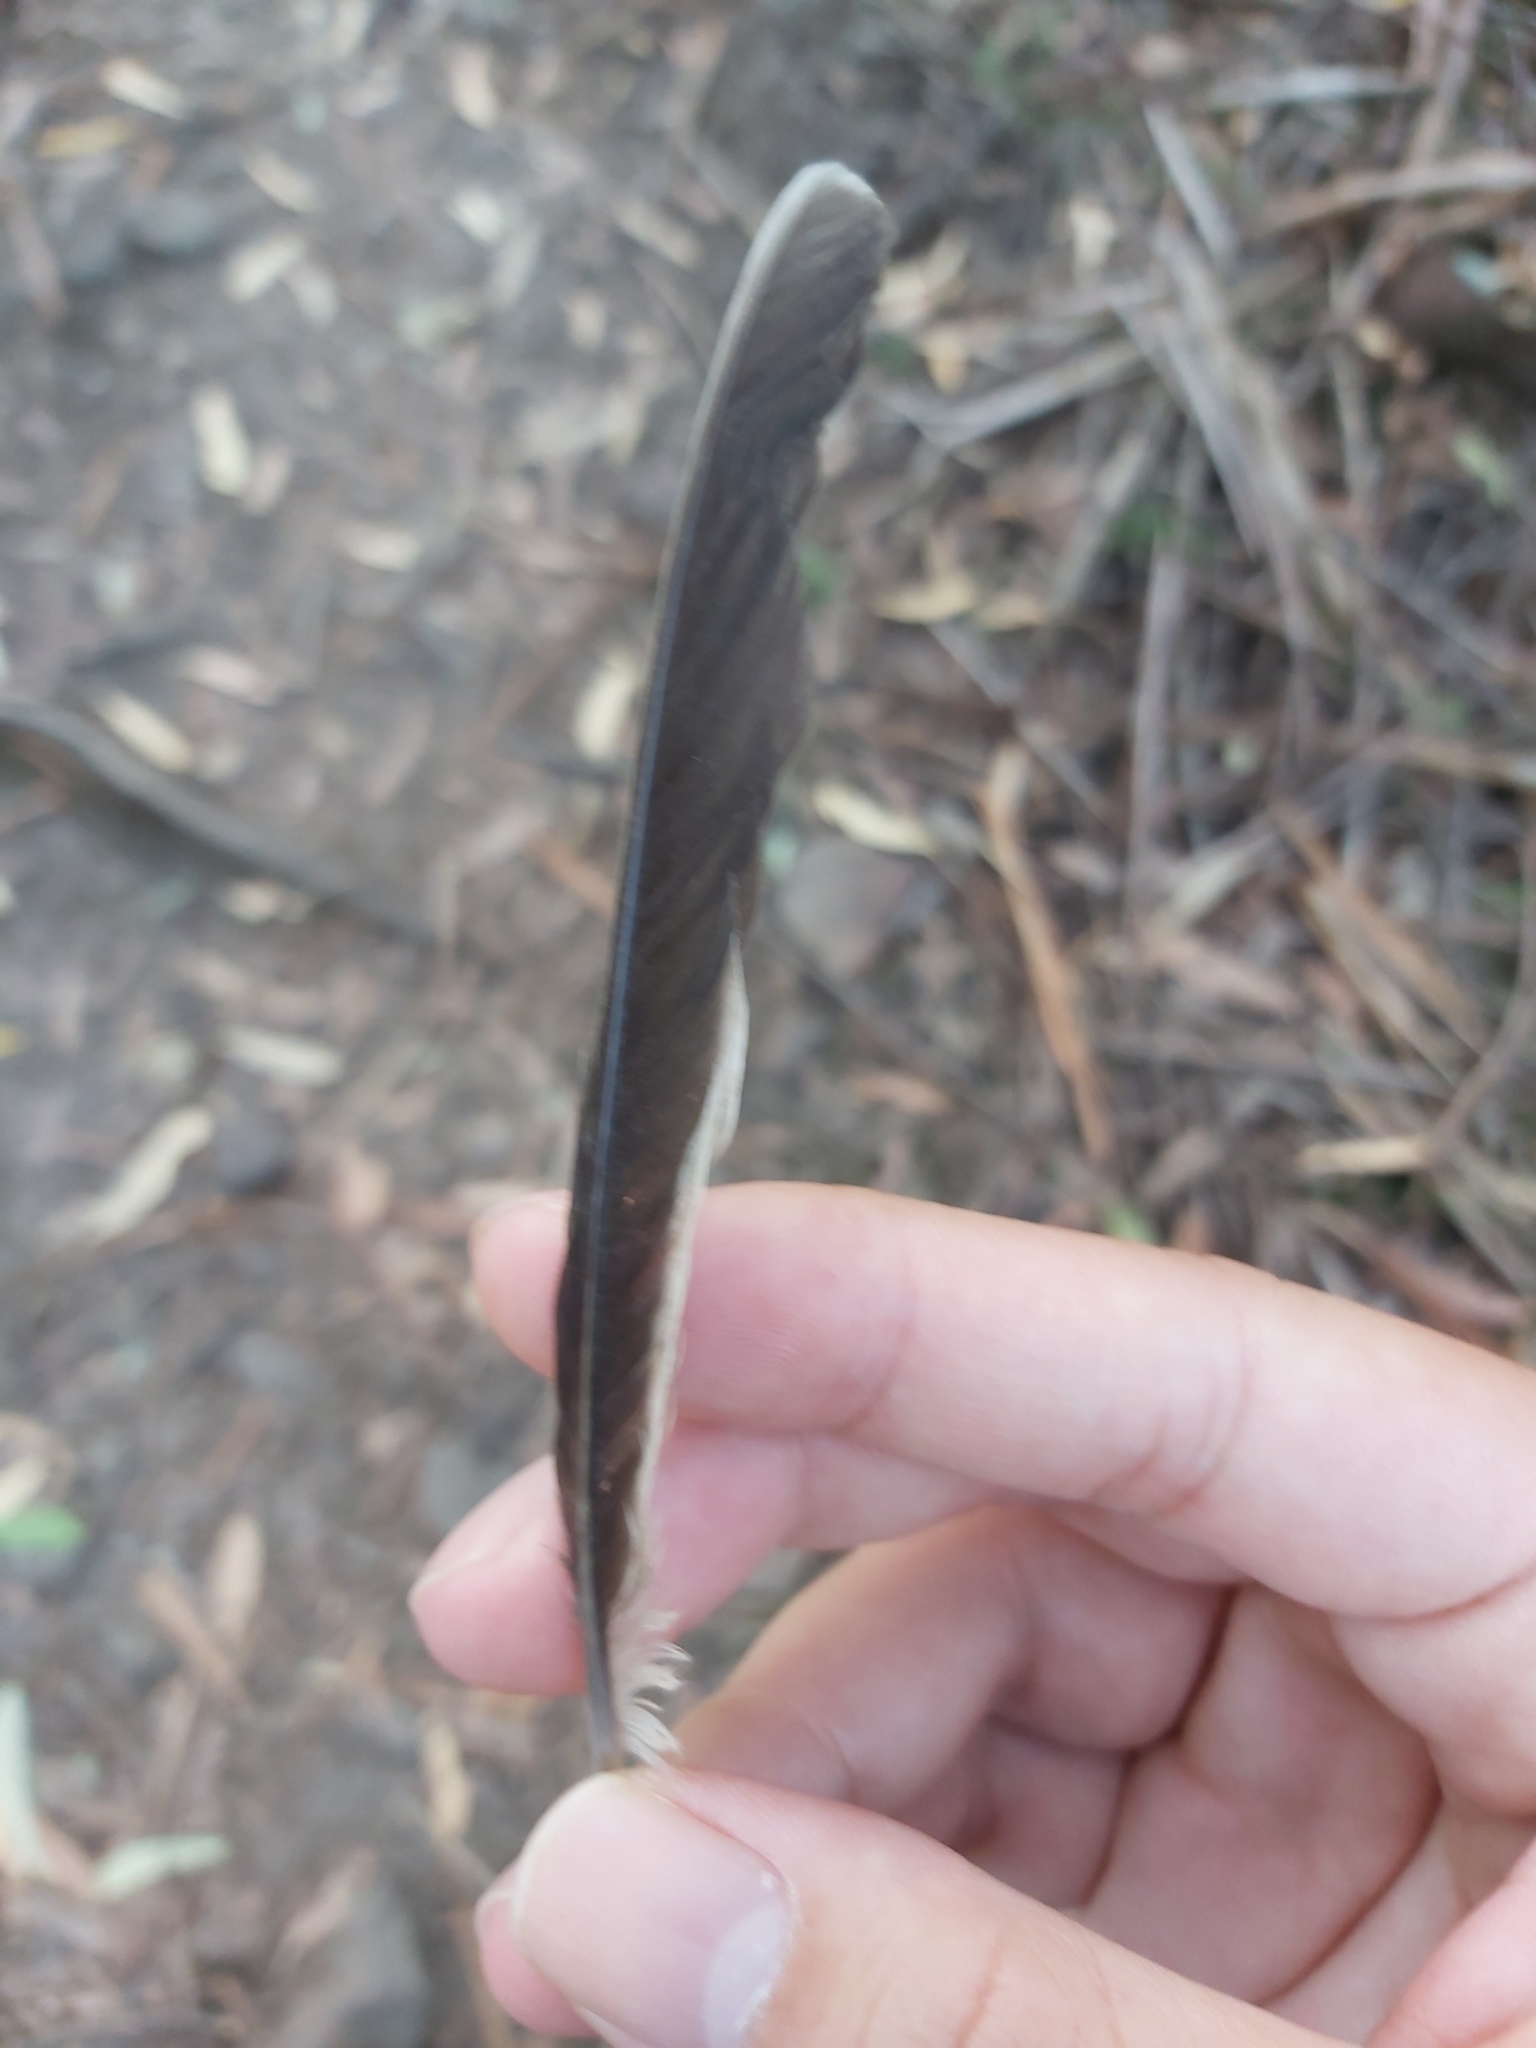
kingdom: Animalia
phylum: Chordata
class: Aves
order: Passeriformes
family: Meliphagidae
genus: Manorina
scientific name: Manorina melanocephala
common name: Noisy miner
